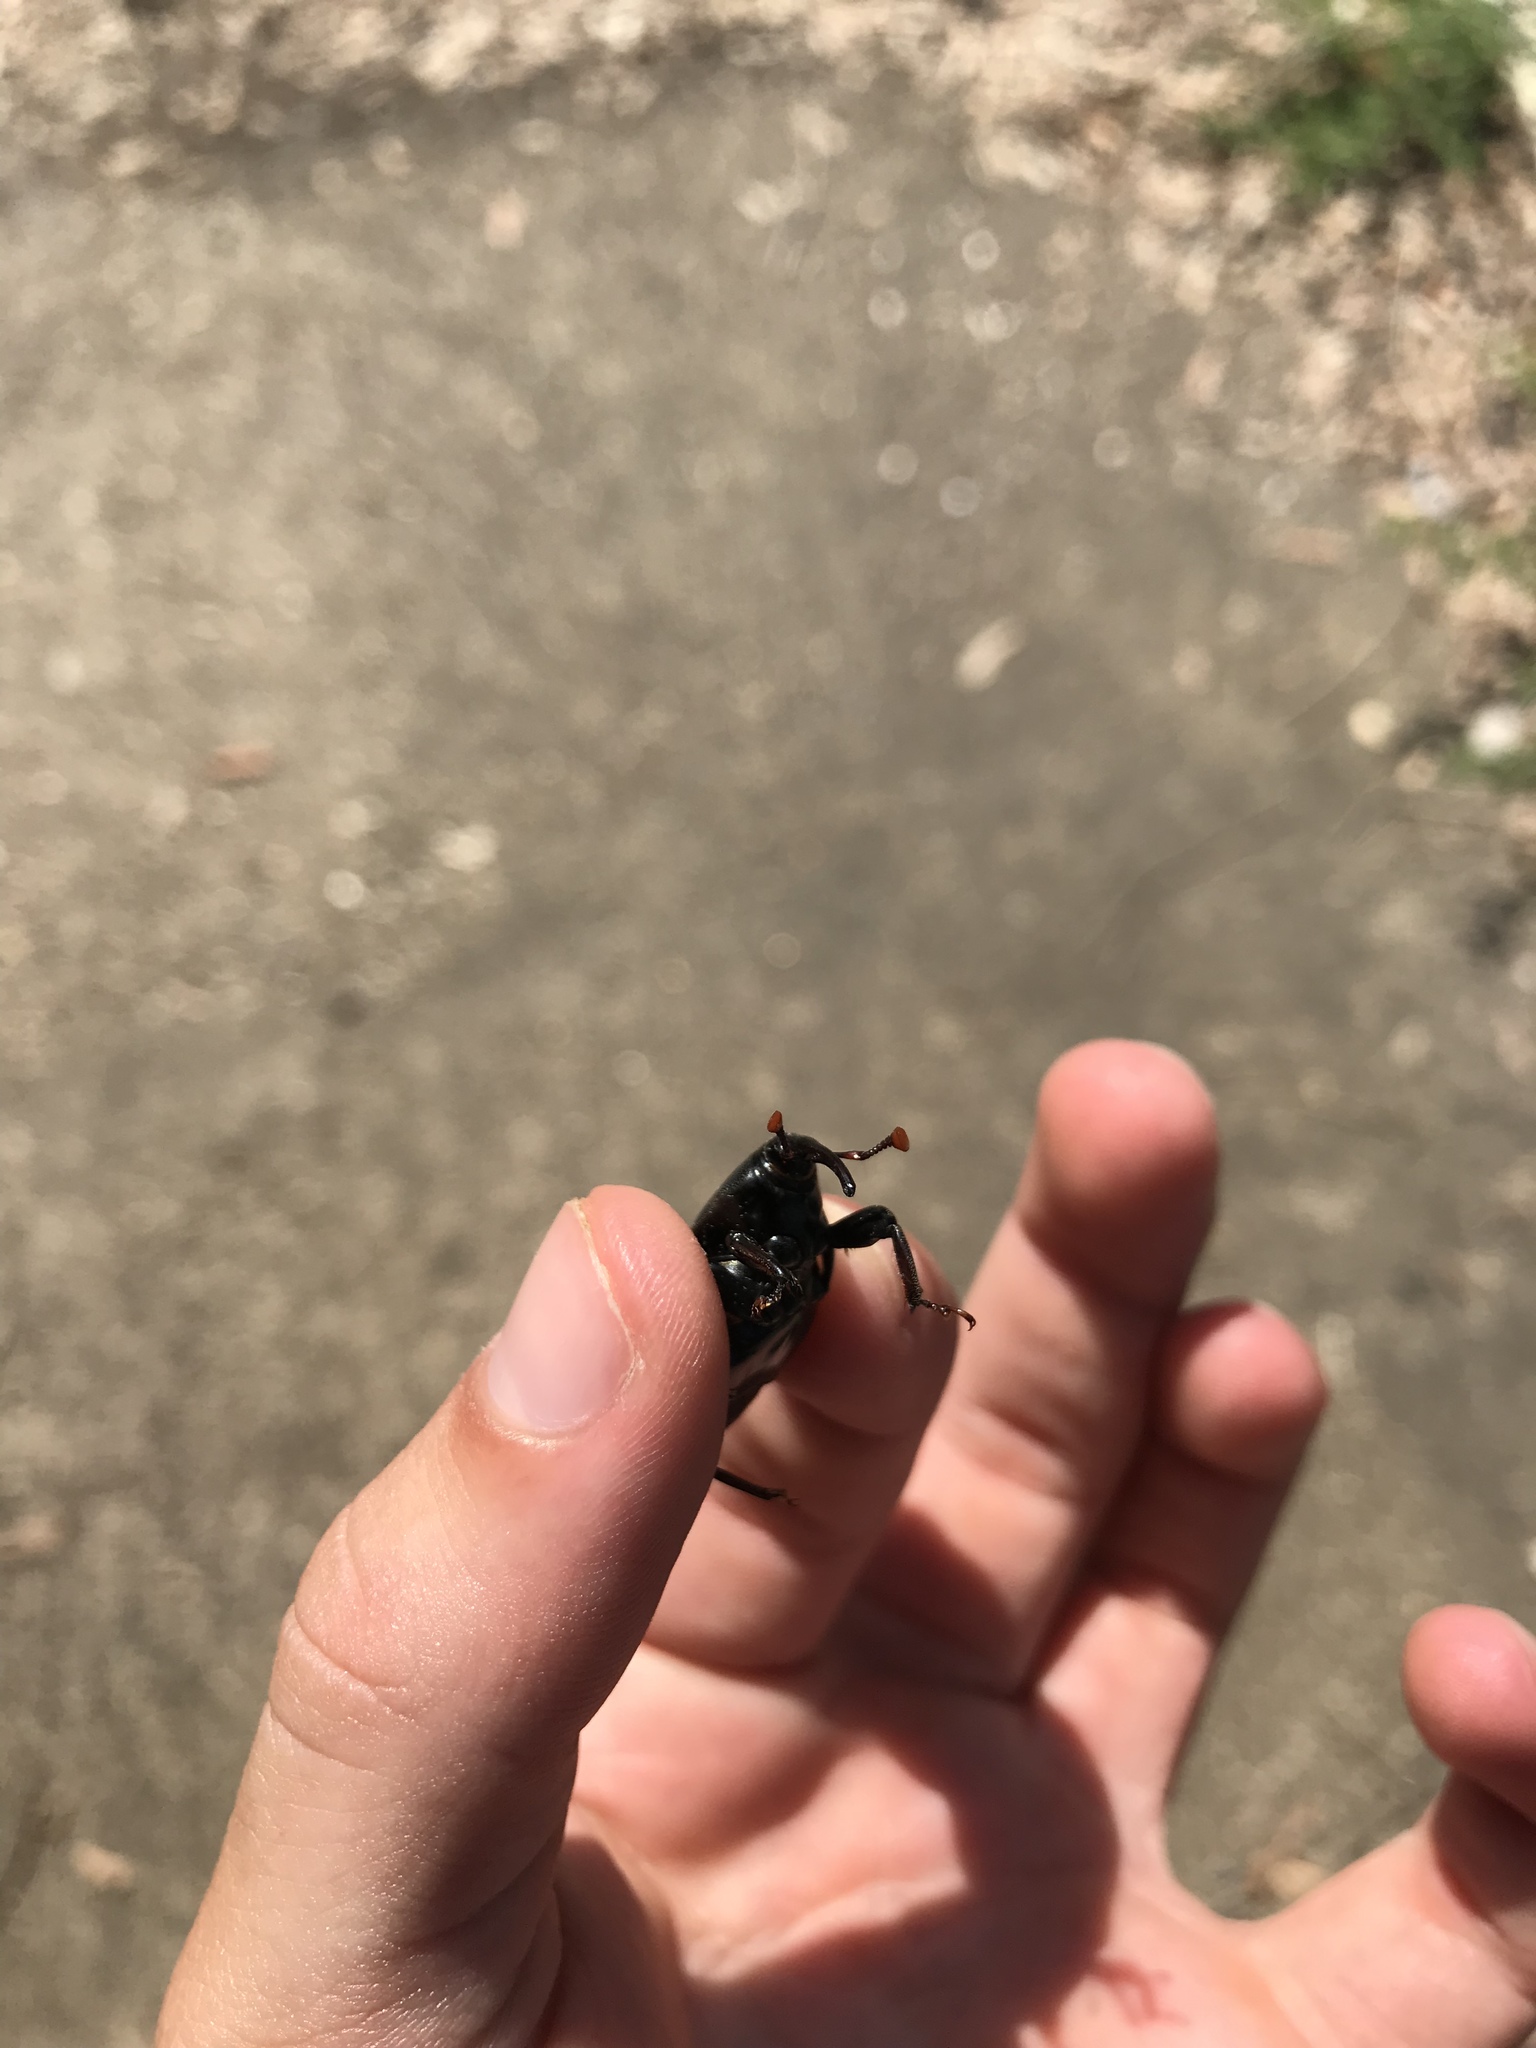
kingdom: Animalia
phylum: Arthropoda
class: Insecta
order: Coleoptera
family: Dryophthoridae
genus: Rhynchophorus
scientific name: Rhynchophorus cruentatus
